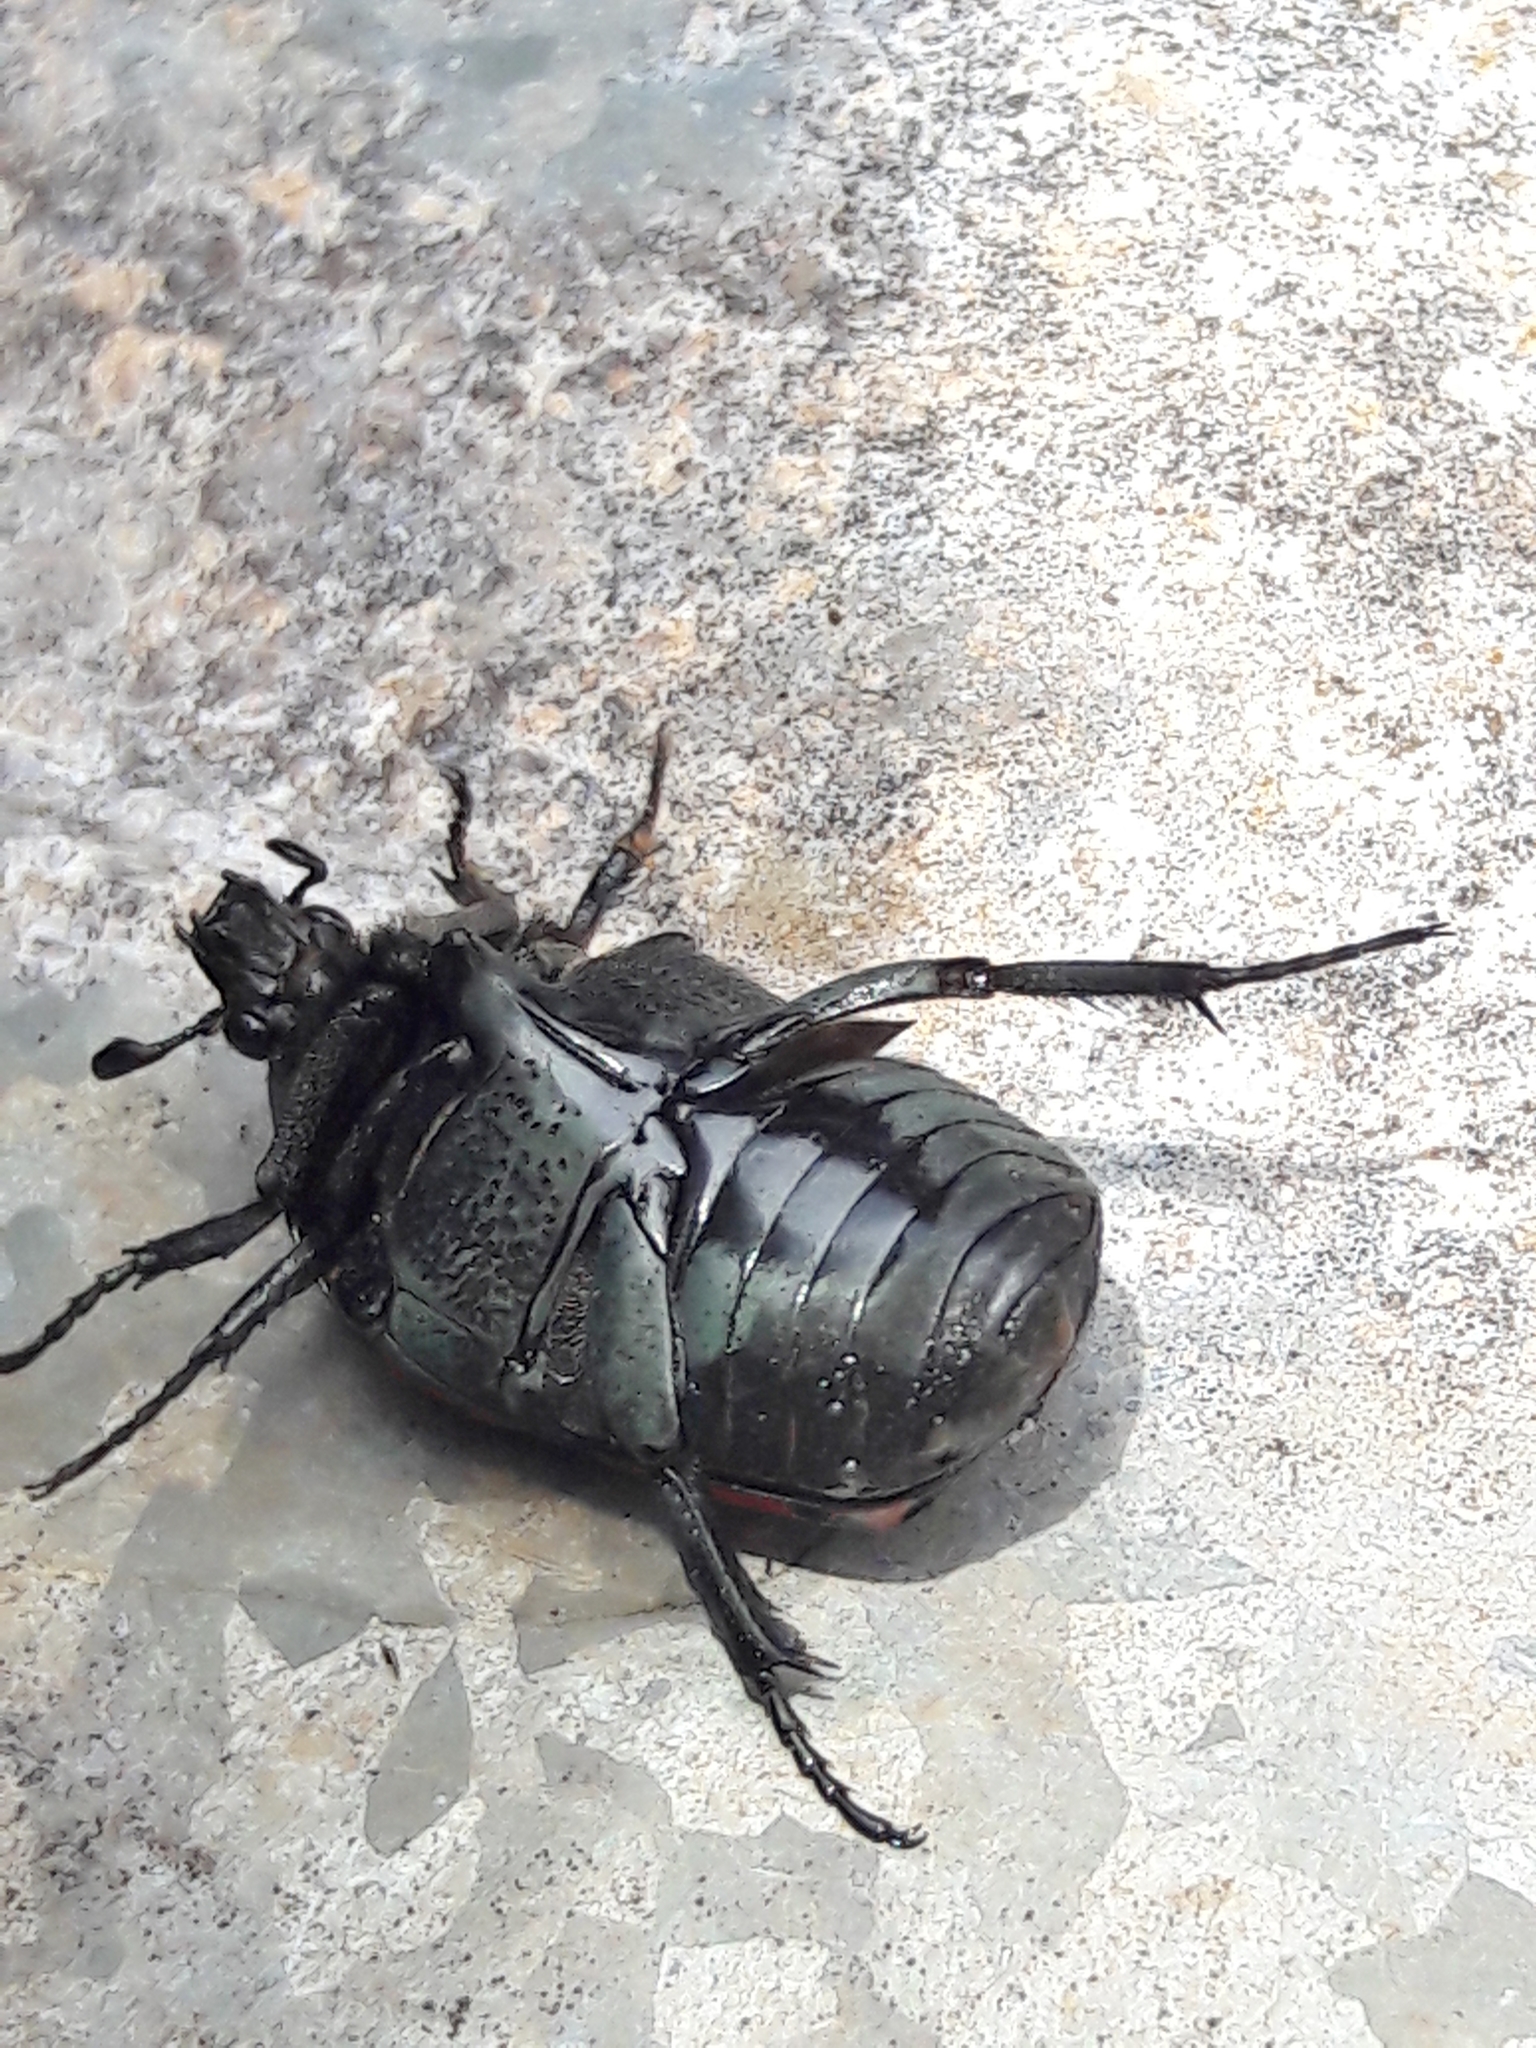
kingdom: Animalia
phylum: Arthropoda
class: Insecta
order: Coleoptera
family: Scarabaeidae
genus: Gymnetis
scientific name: Gymnetis rufilatris
